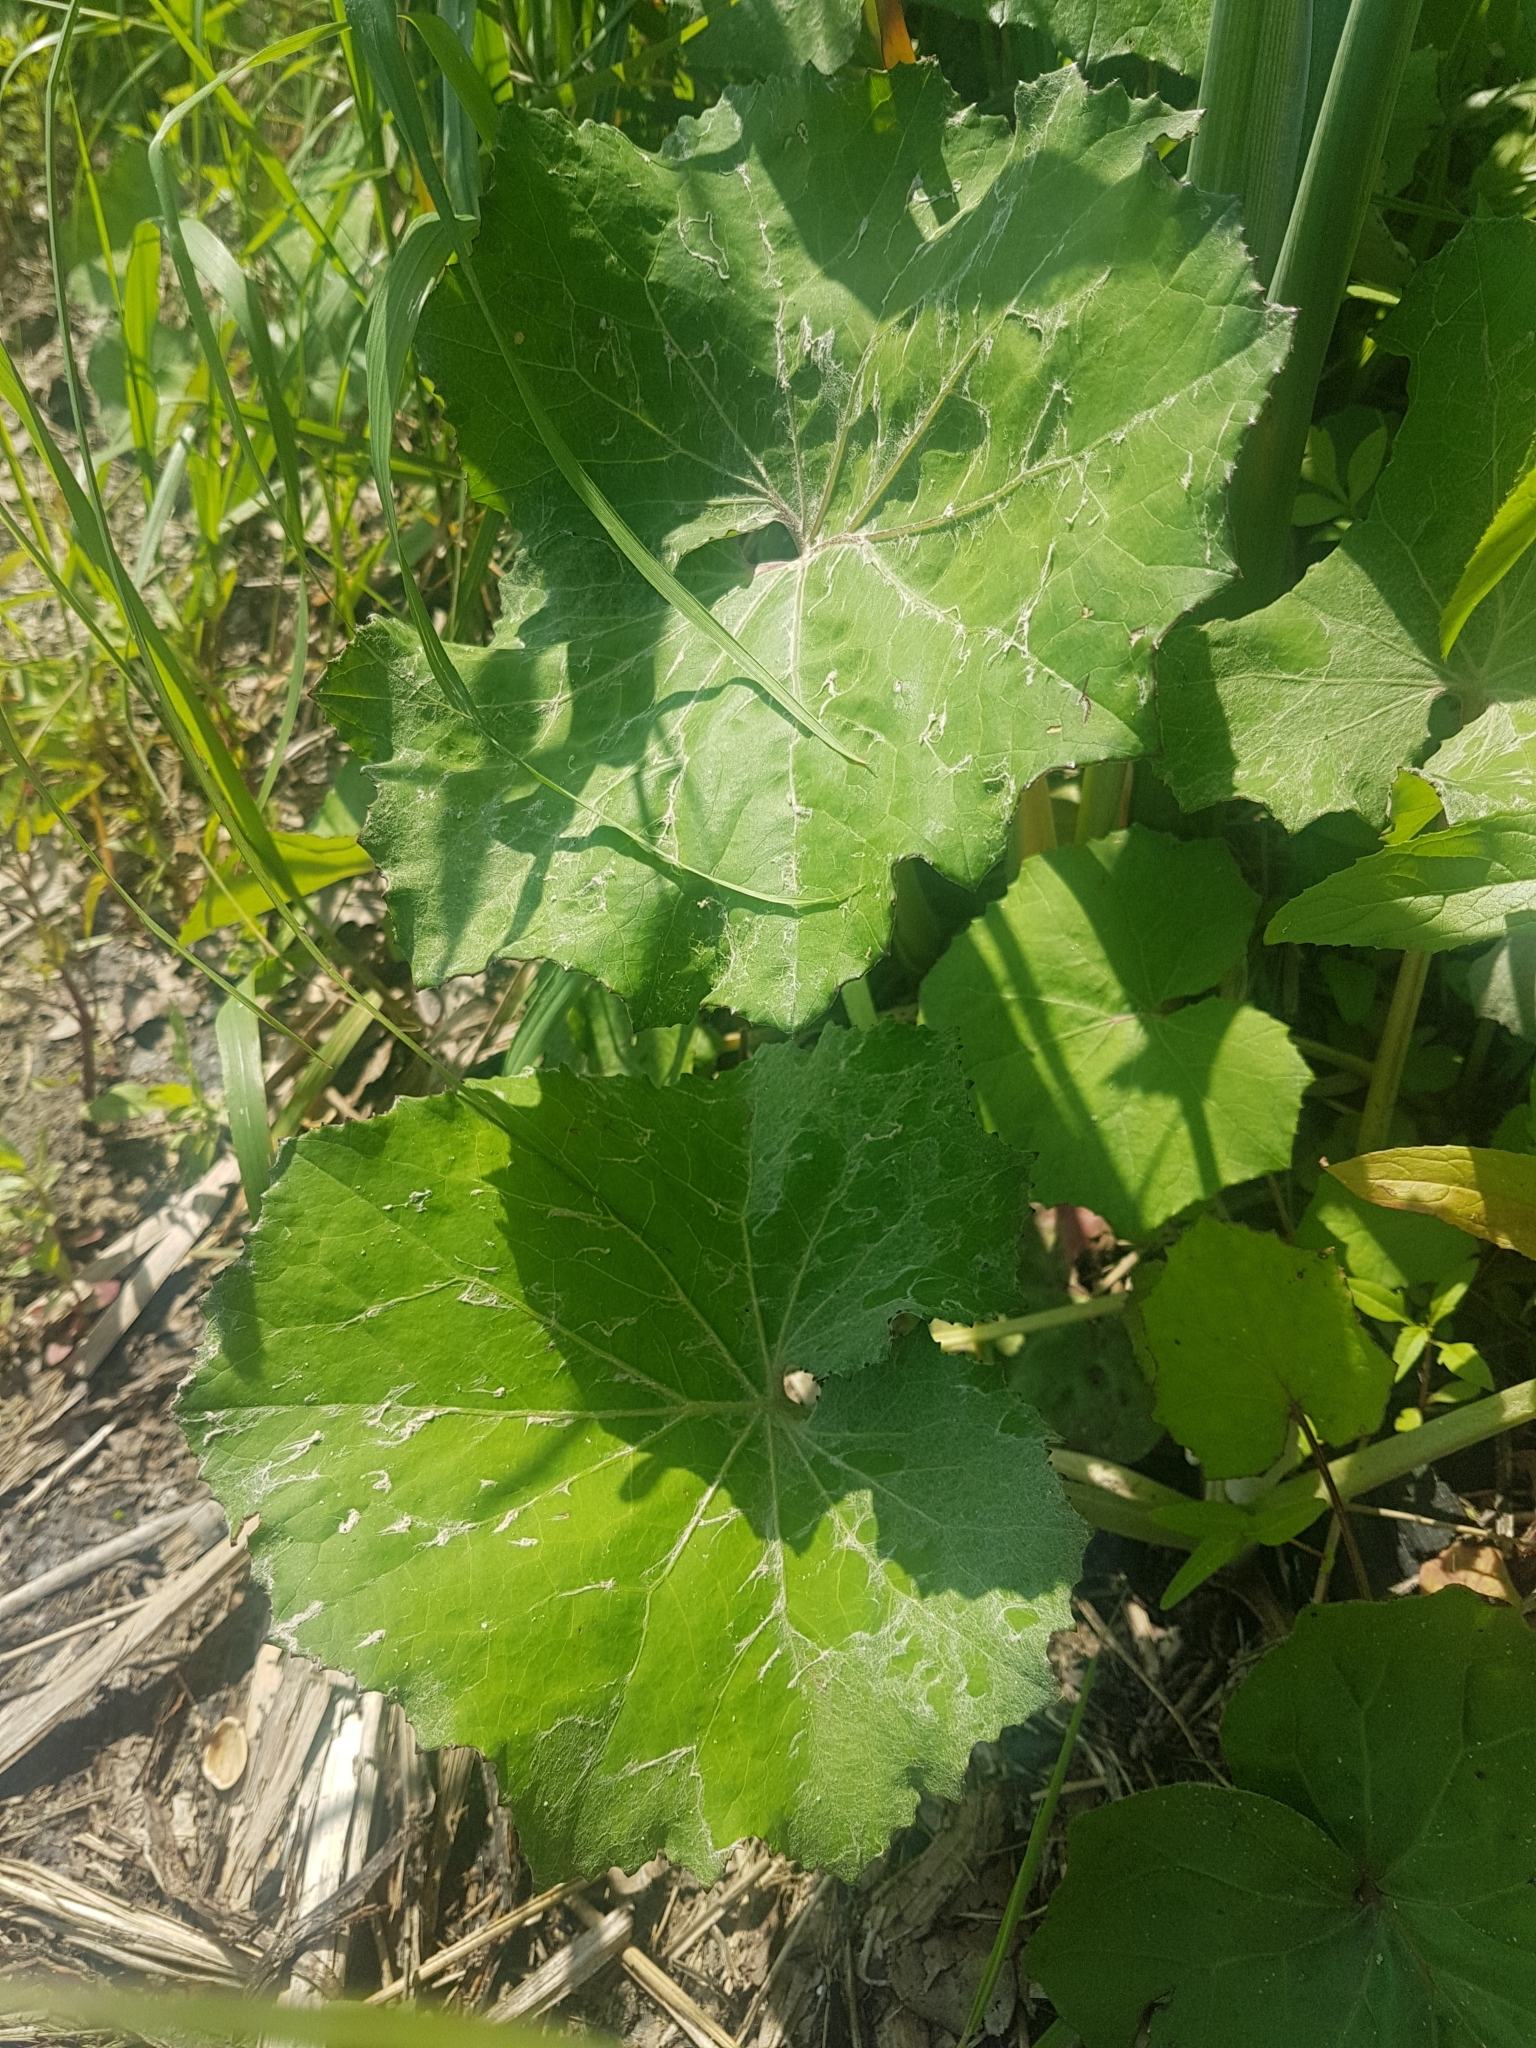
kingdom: Plantae
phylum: Tracheophyta
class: Magnoliopsida
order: Asterales
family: Asteraceae
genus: Tussilago
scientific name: Tussilago farfara
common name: Coltsfoot
